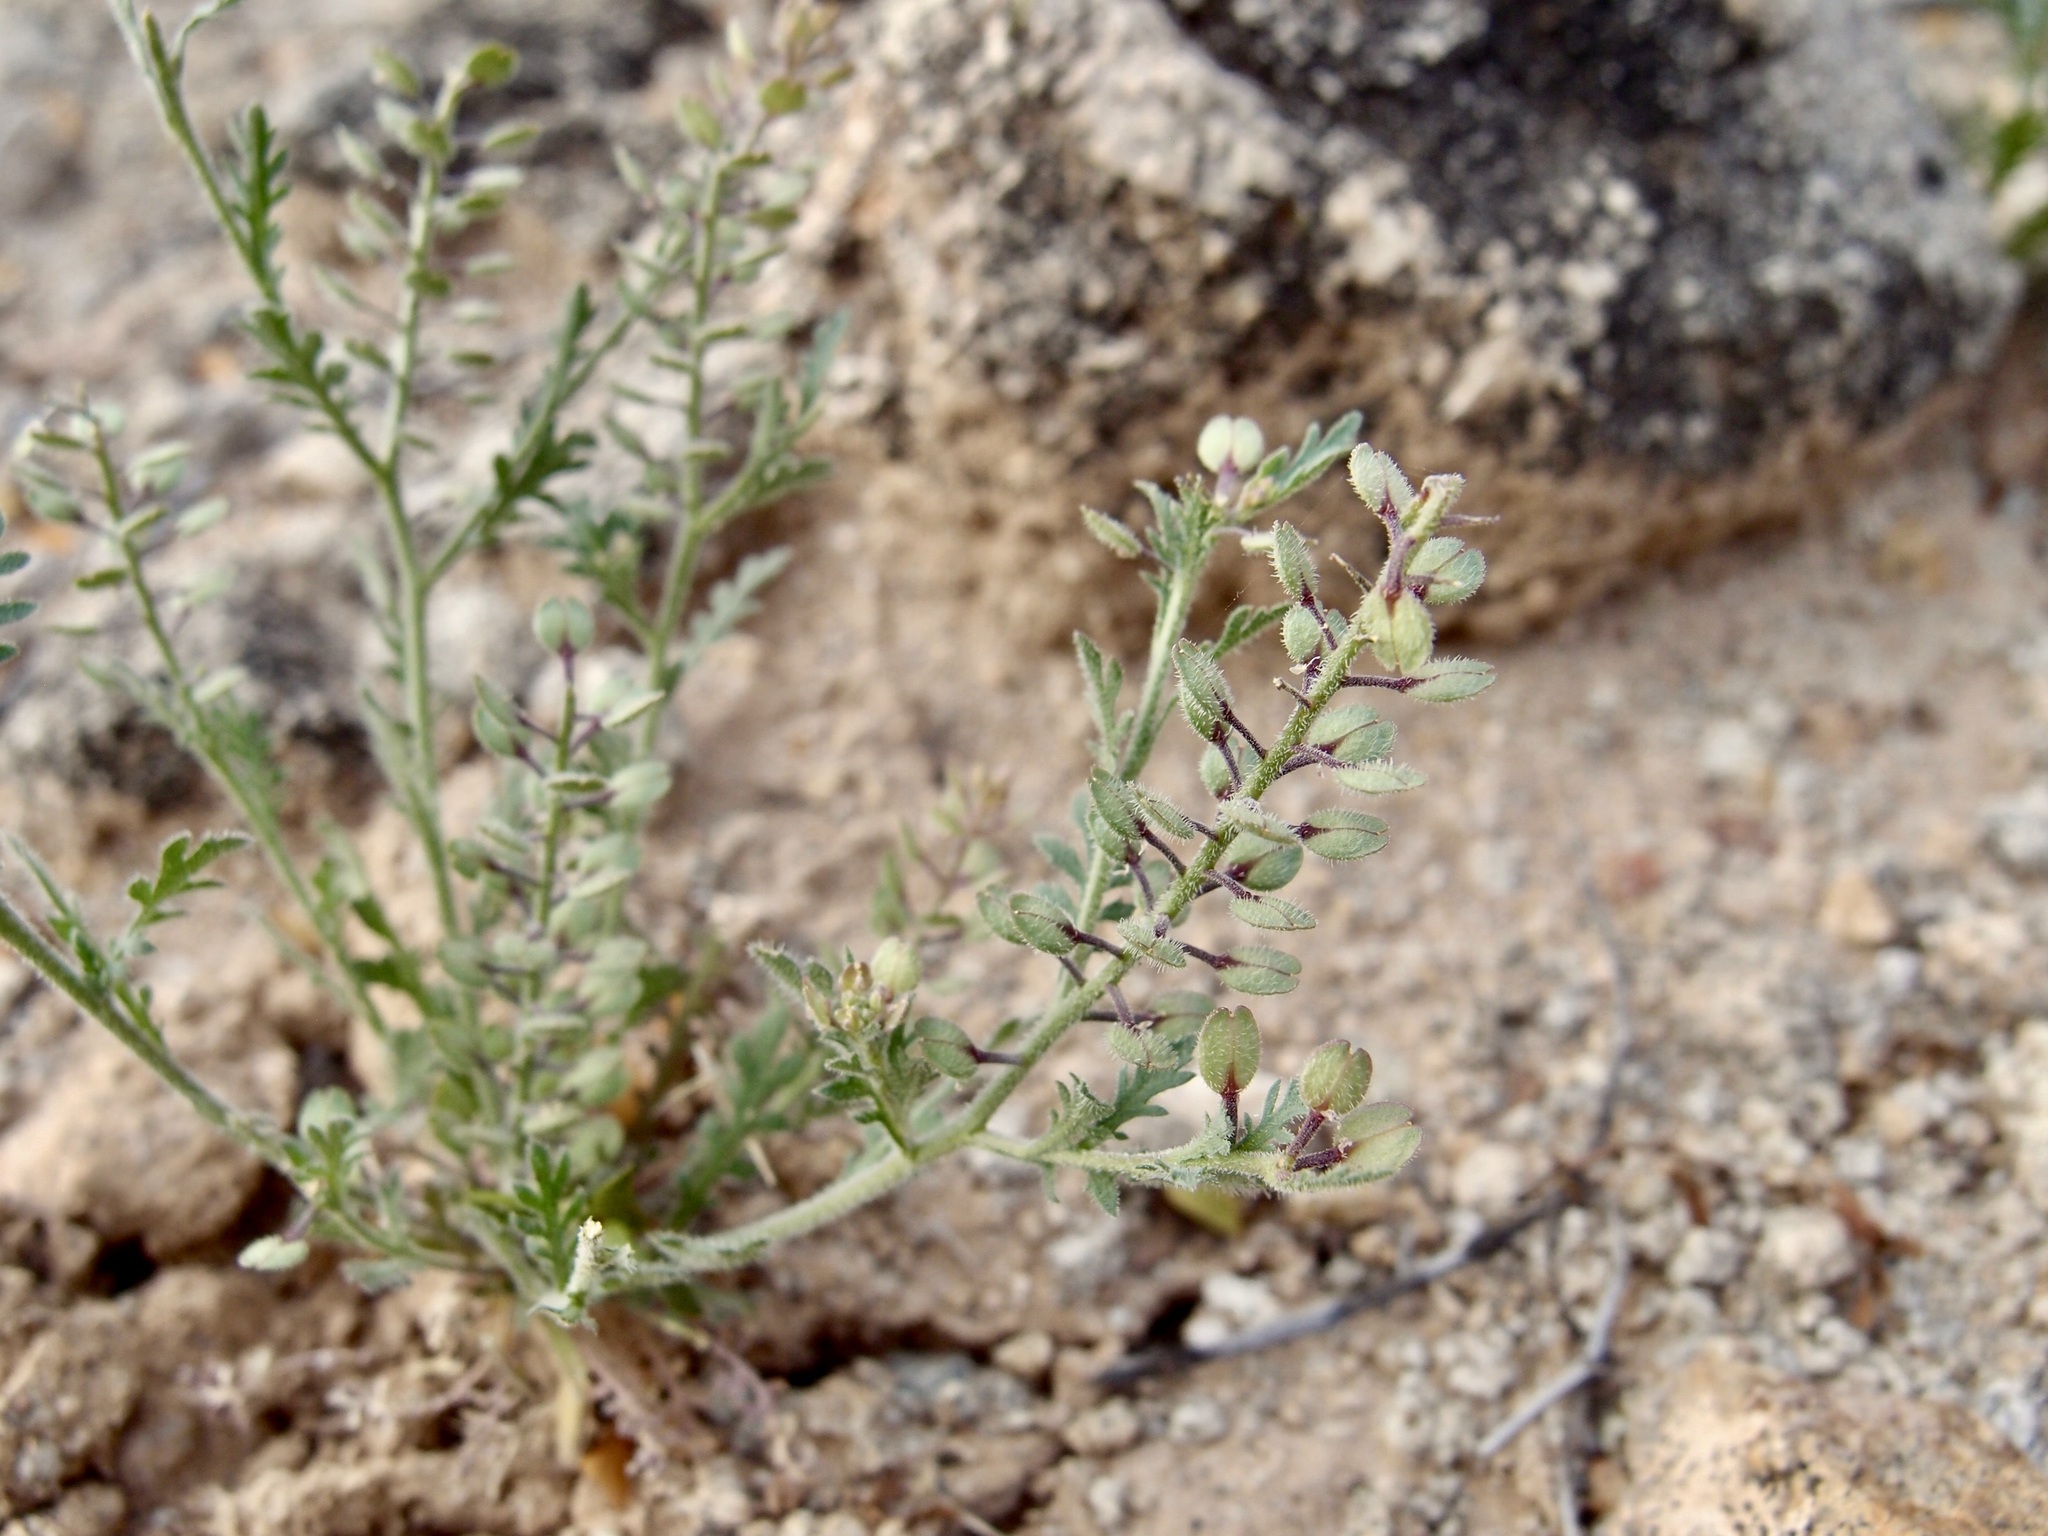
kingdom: Plantae
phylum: Tracheophyta
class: Magnoliopsida
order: Brassicales
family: Brassicaceae
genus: Lepidium
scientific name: Lepidium lasiocarpum
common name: Hairy-pod pepperwort
